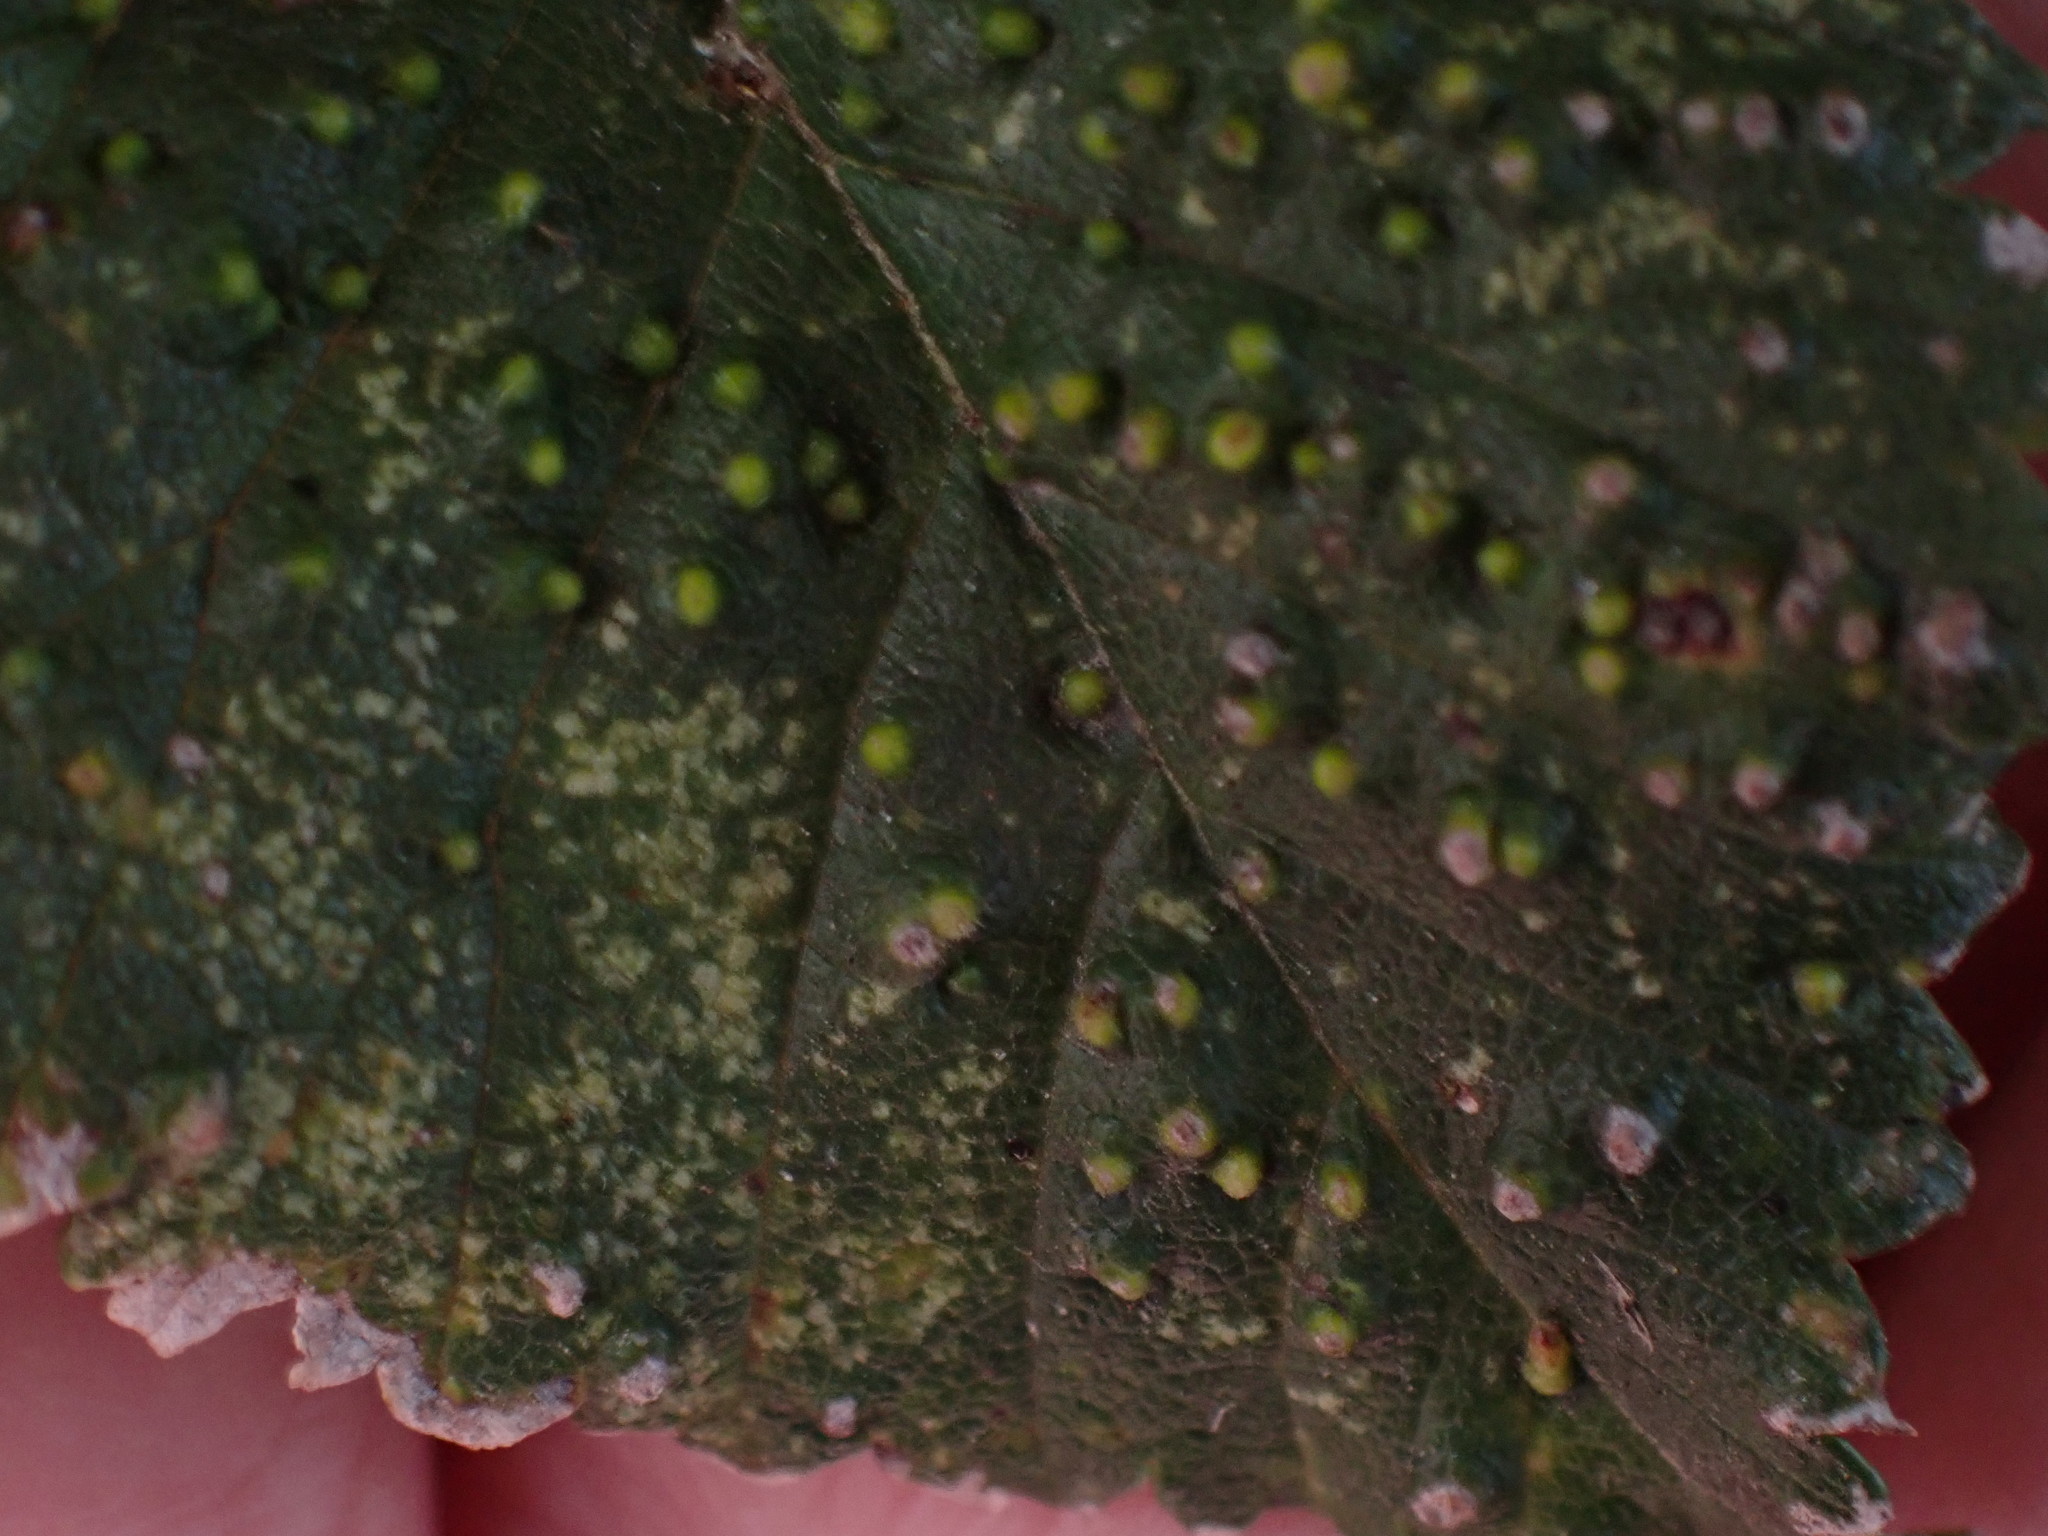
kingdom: Animalia
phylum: Arthropoda
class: Arachnida
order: Trombidiformes
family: Eriophyidae
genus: Aceria
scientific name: Aceria brevipunctata
